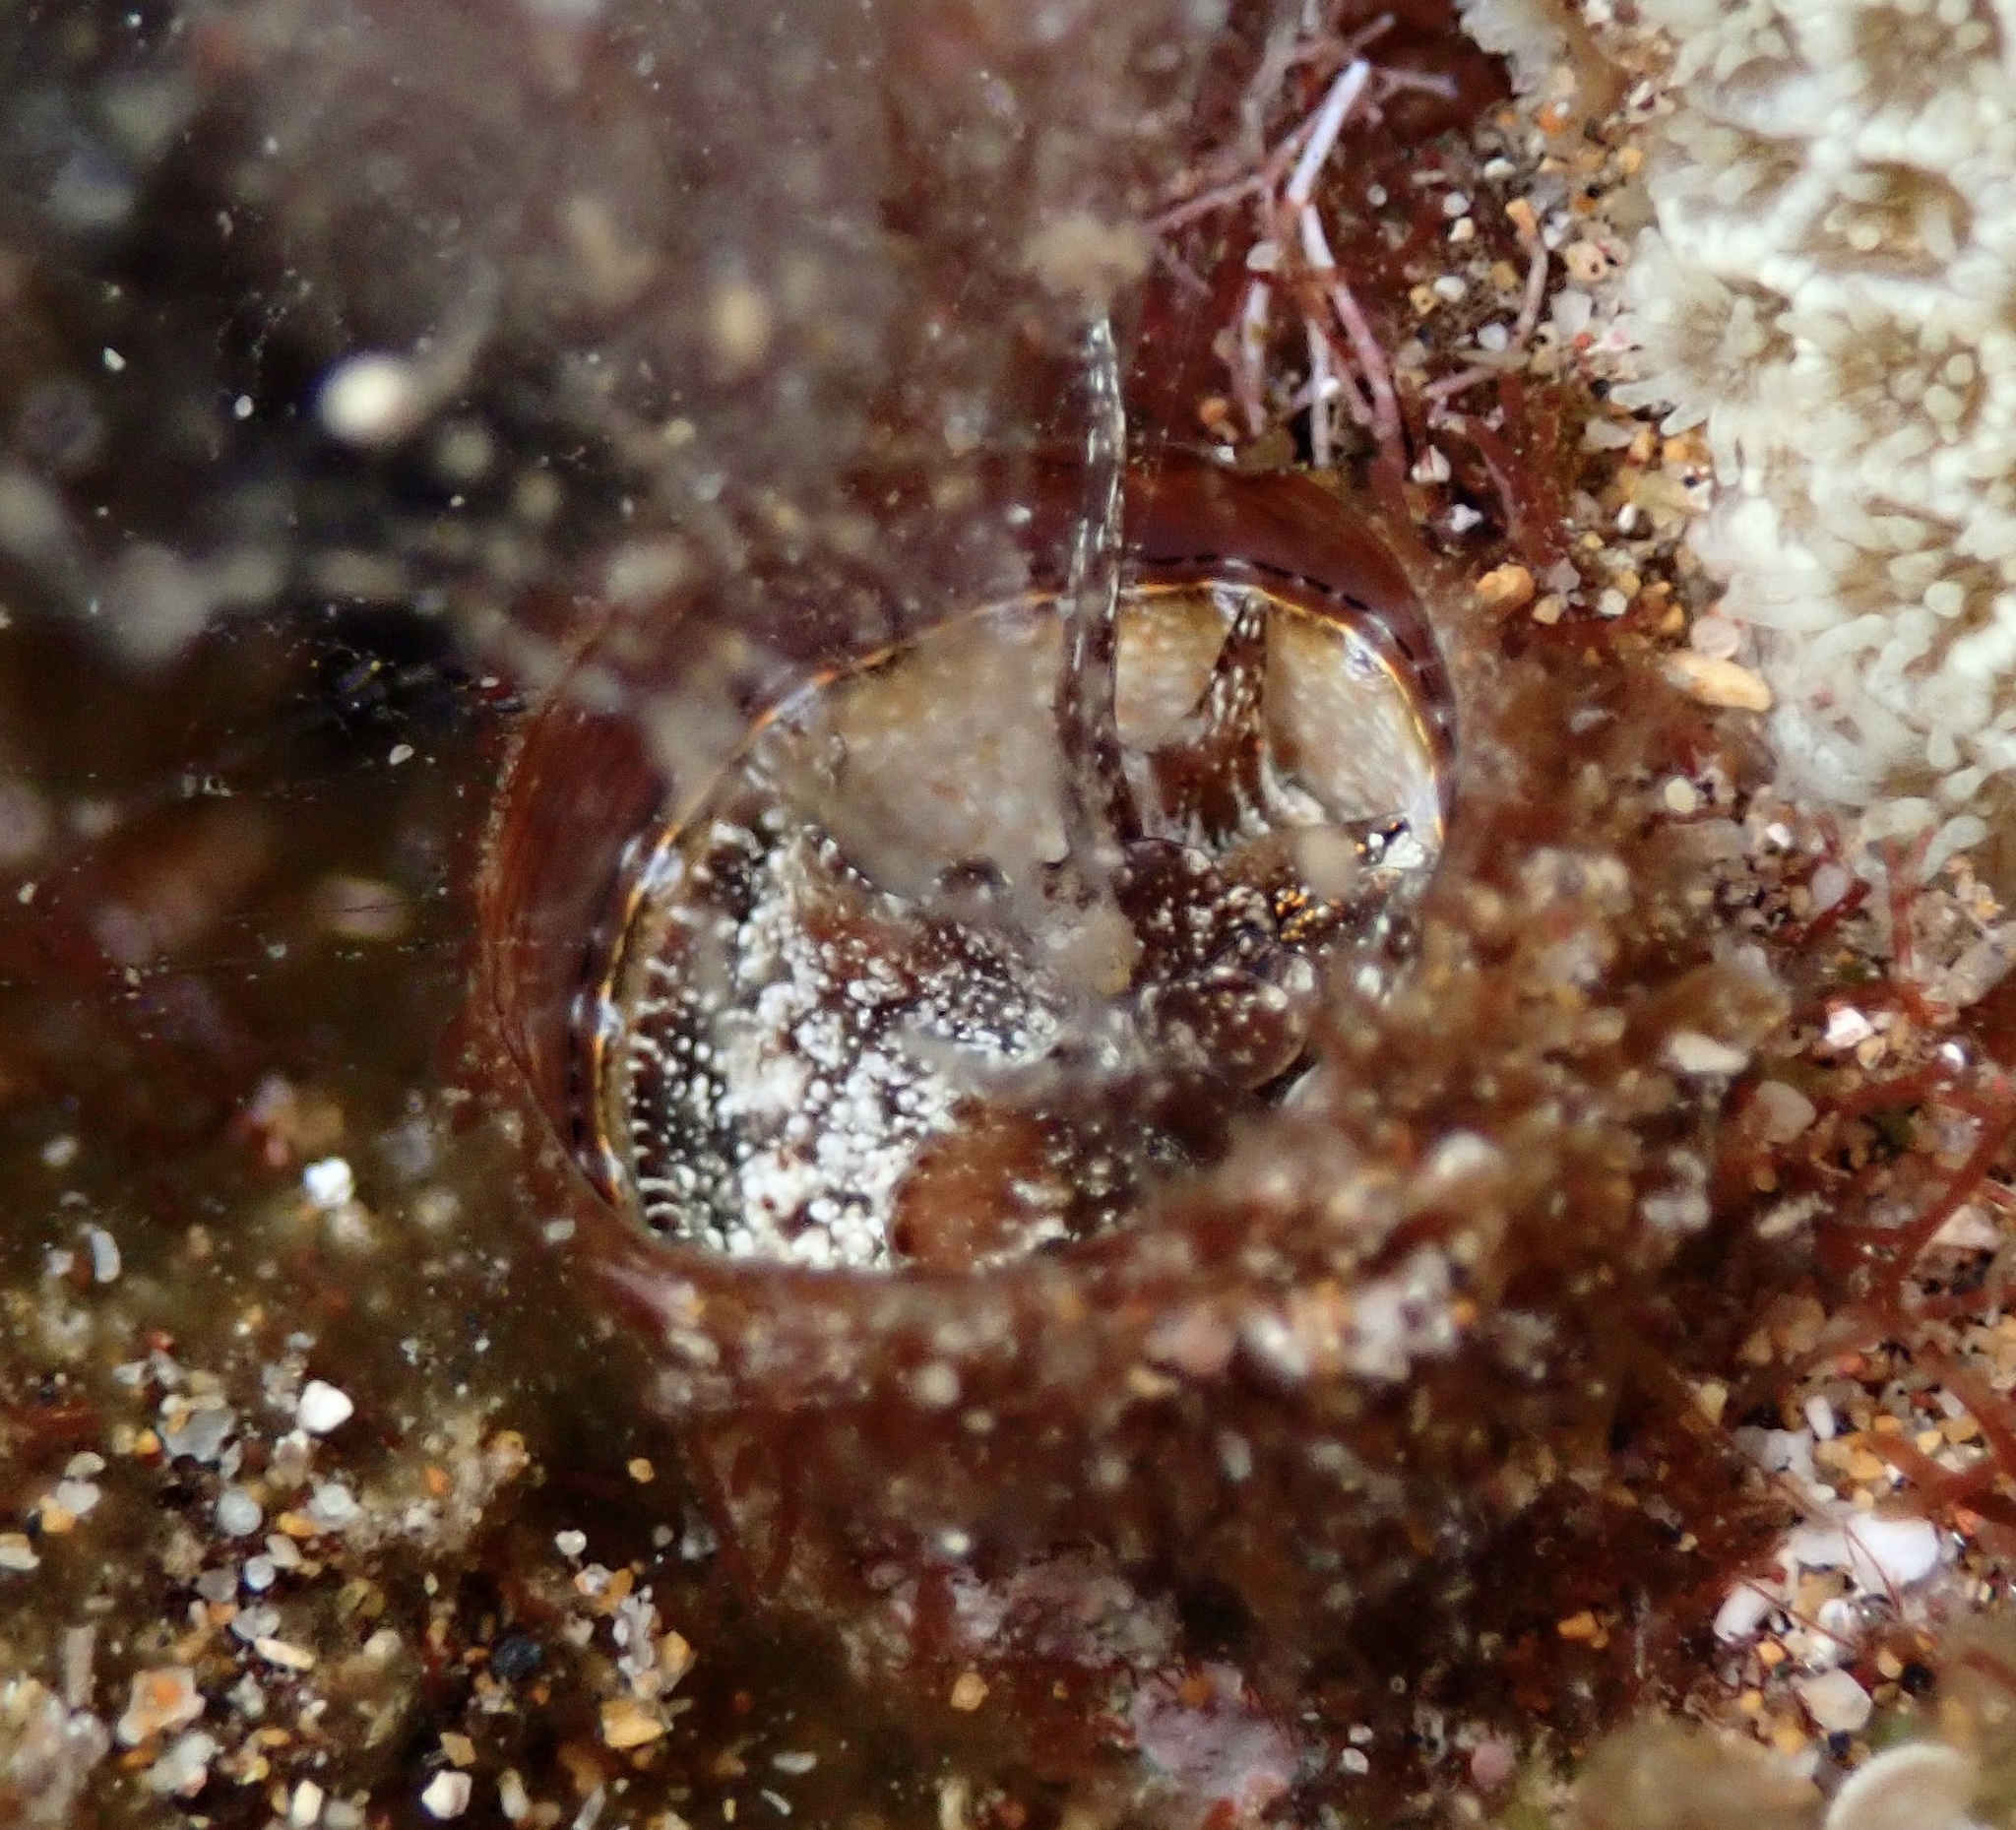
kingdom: Animalia
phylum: Mollusca
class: Gastropoda
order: Littorinimorpha
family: Vermetidae
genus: Thylacodes
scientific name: Thylacodes variabilis
